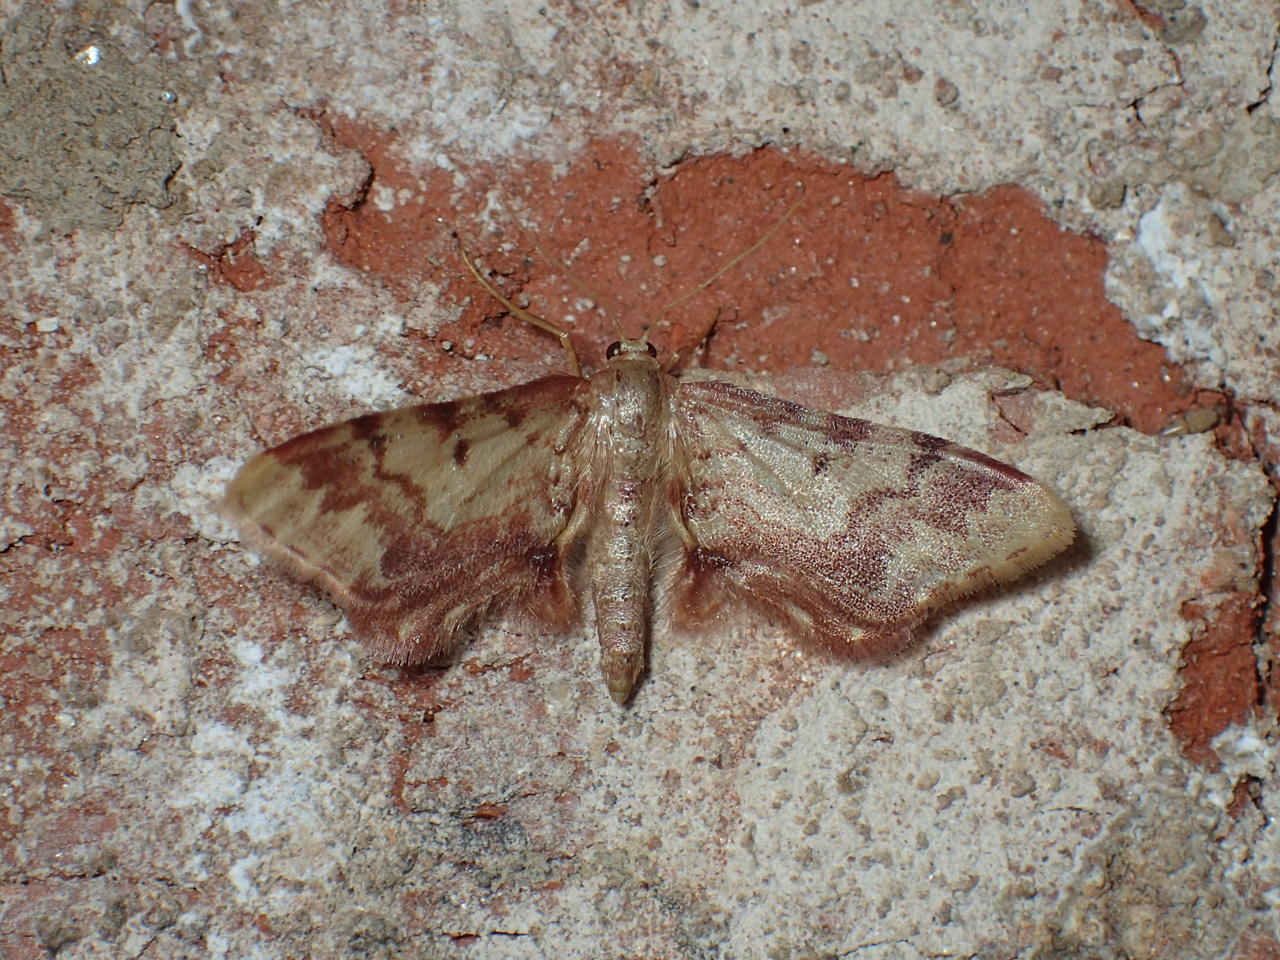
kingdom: Animalia
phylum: Arthropoda
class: Insecta
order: Lepidoptera
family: Geometridae
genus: Idaea
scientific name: Idaea furciferata
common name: Notch-winged wave
